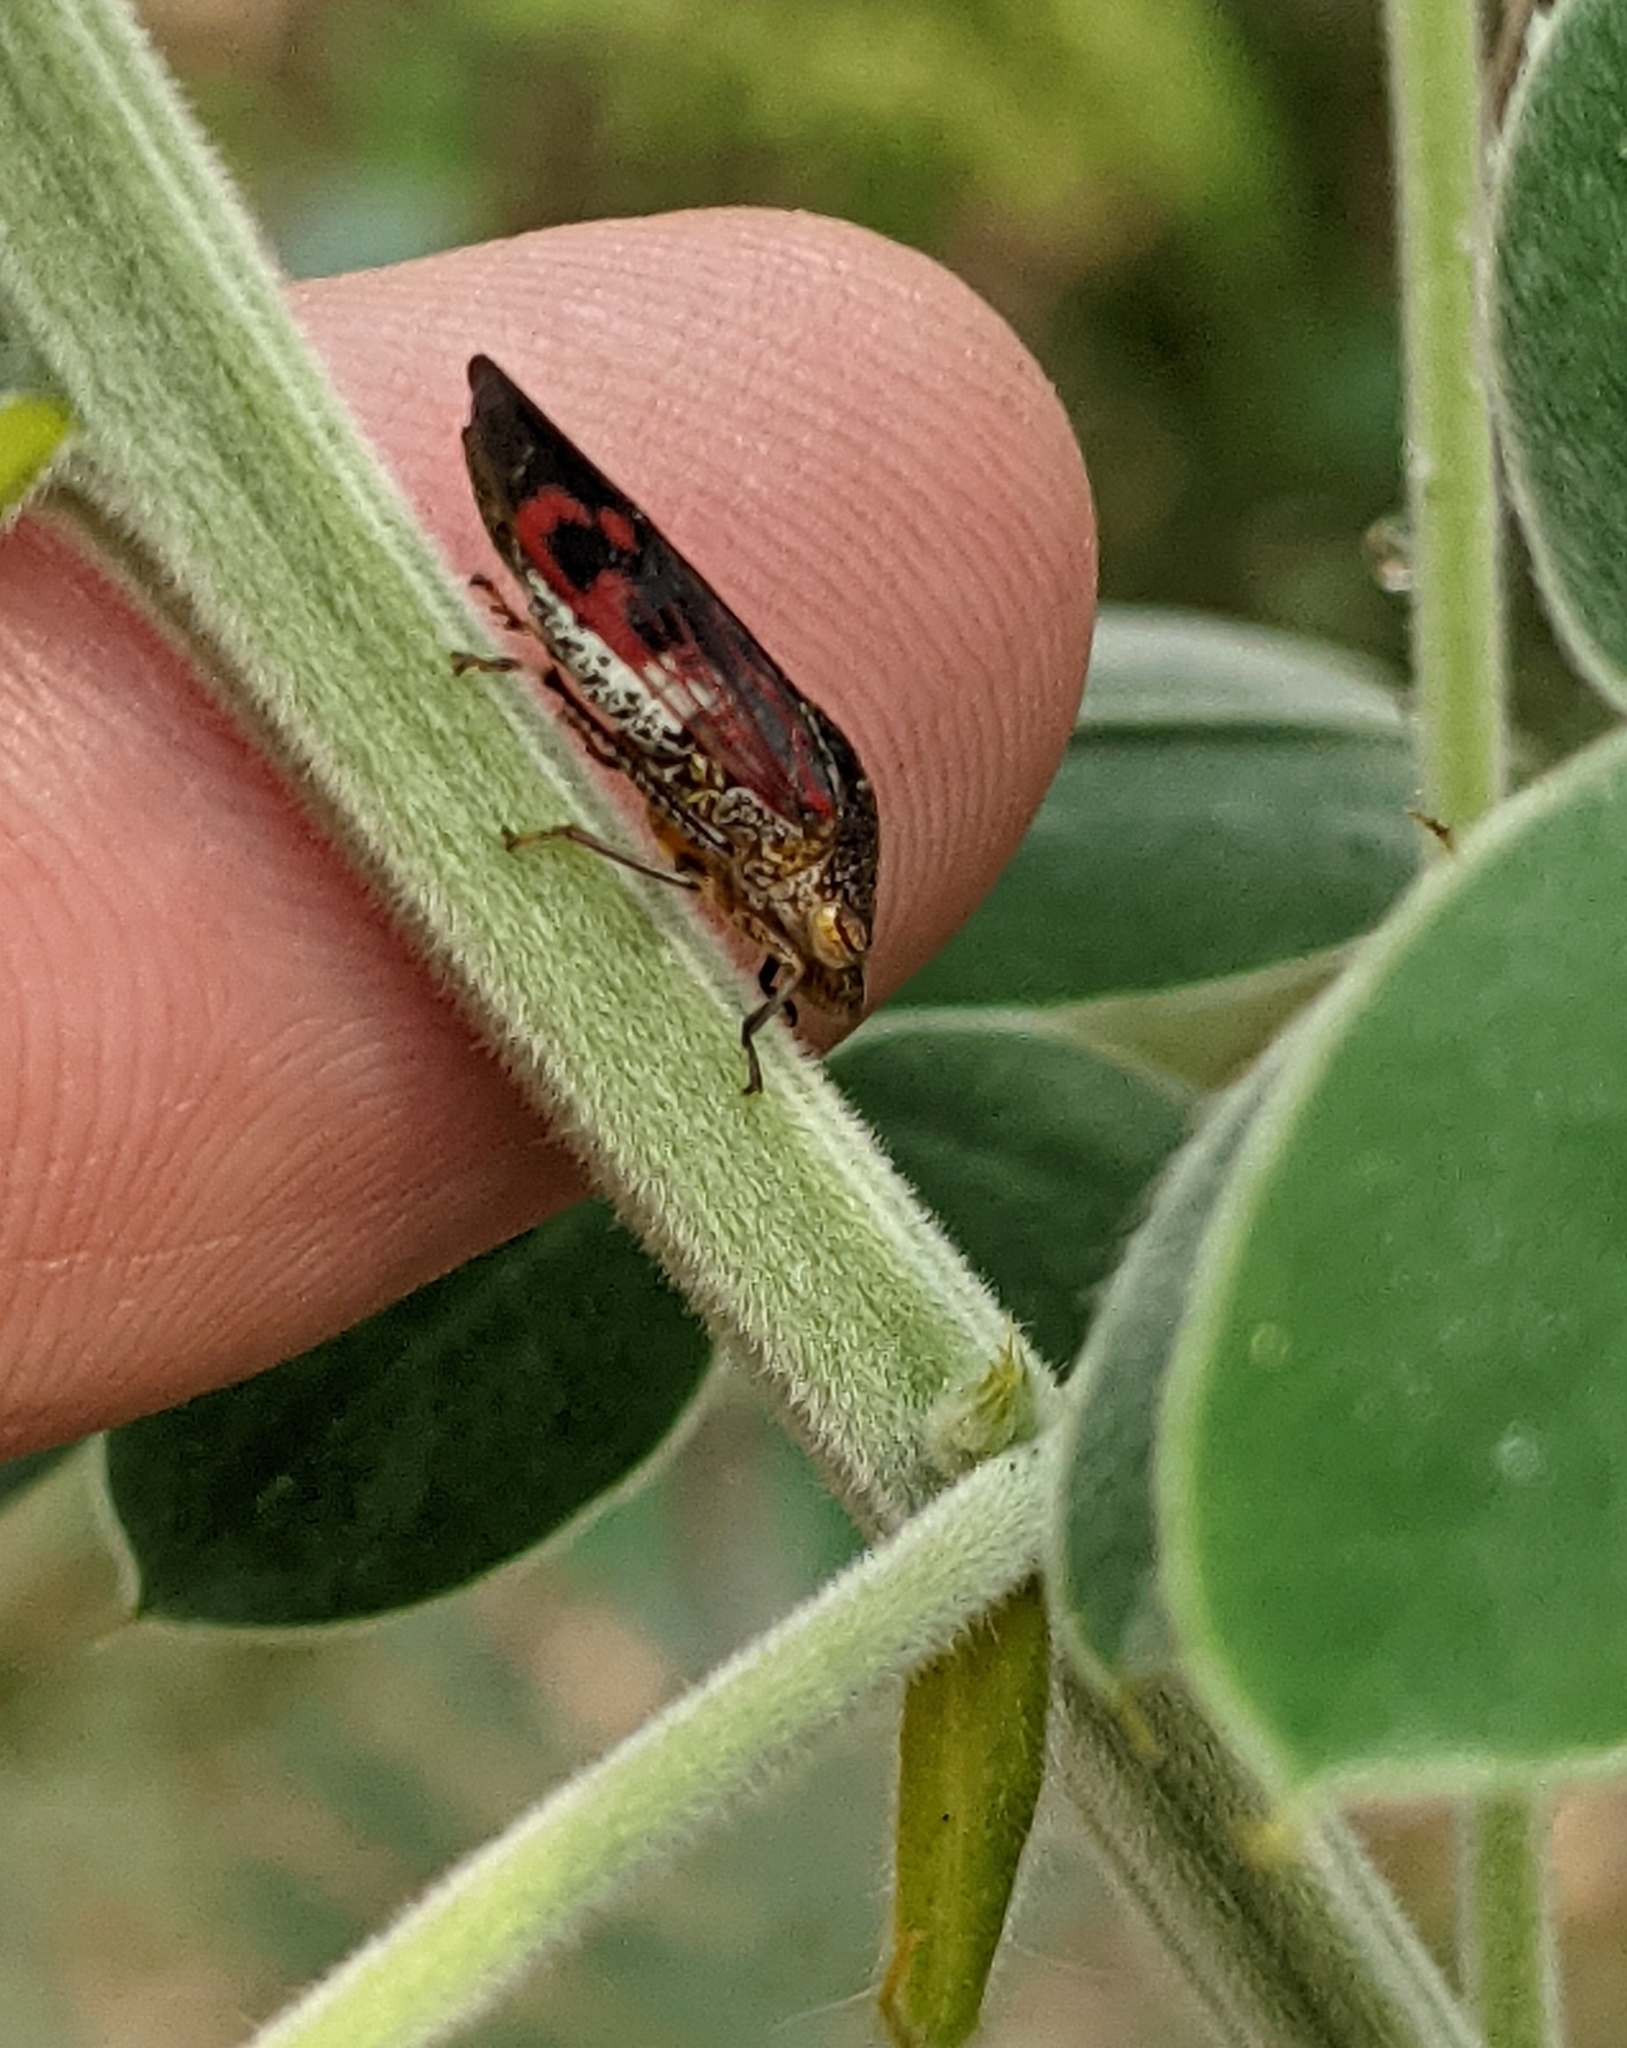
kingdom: Animalia
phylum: Arthropoda
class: Insecta
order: Hemiptera
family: Cicadellidae
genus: Homalodisca
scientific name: Homalodisca vitripennis
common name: Glassy-winged sharpshooter
